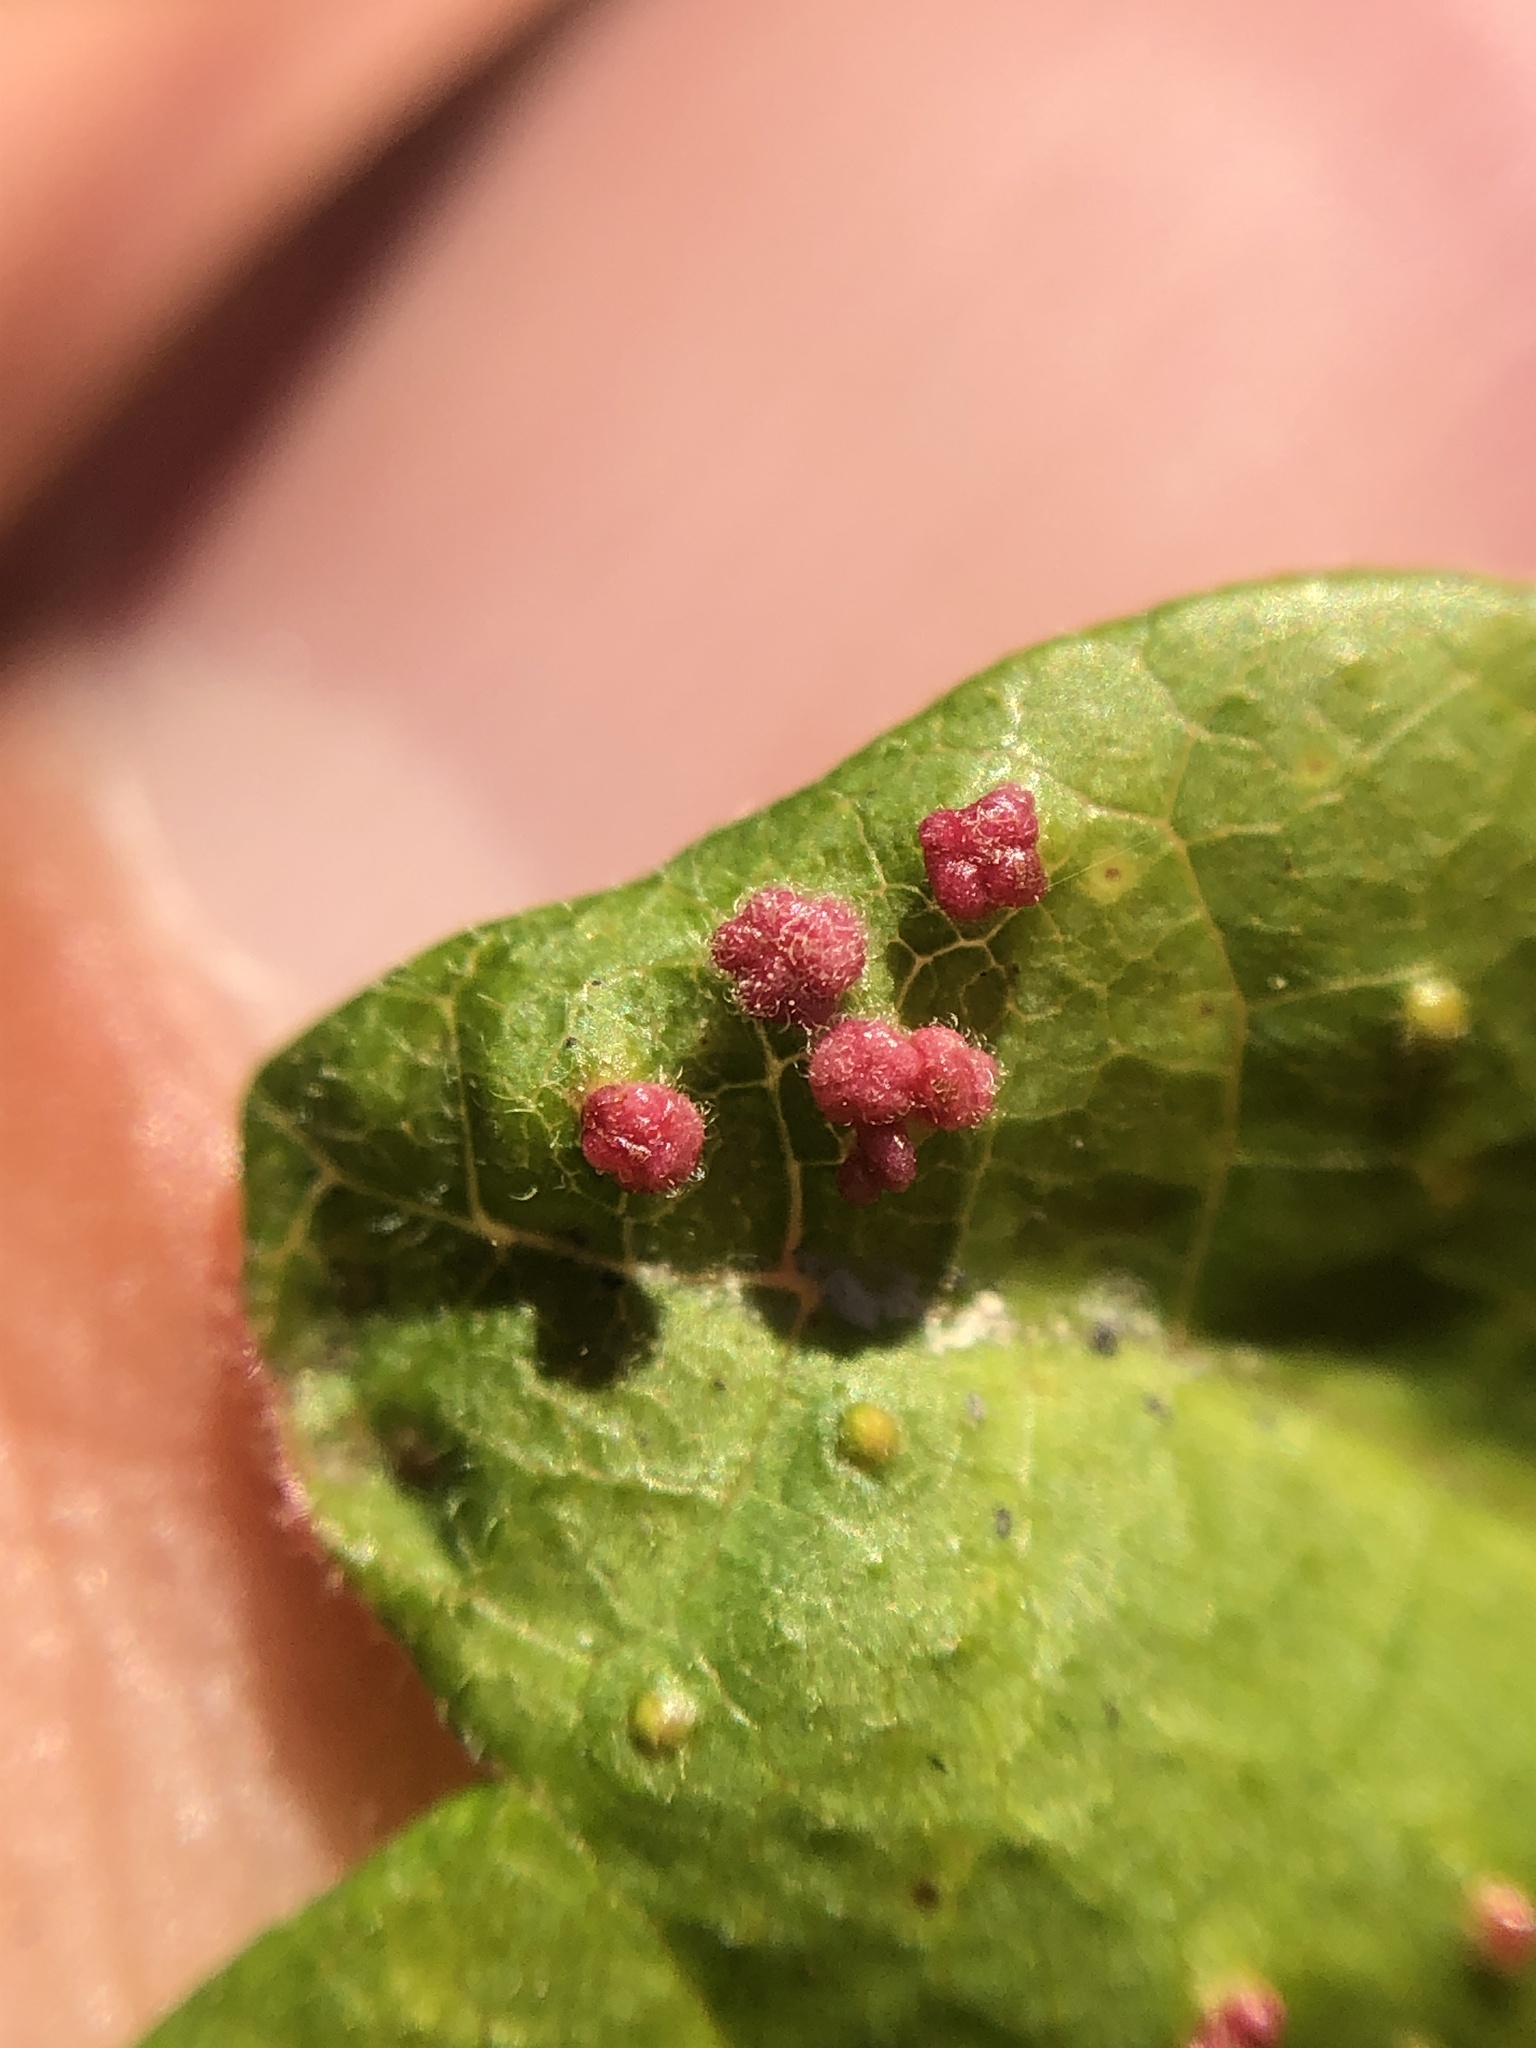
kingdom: Animalia
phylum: Arthropoda
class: Arachnida
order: Trombidiformes
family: Eriophyidae
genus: Aculops
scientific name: Aculops
